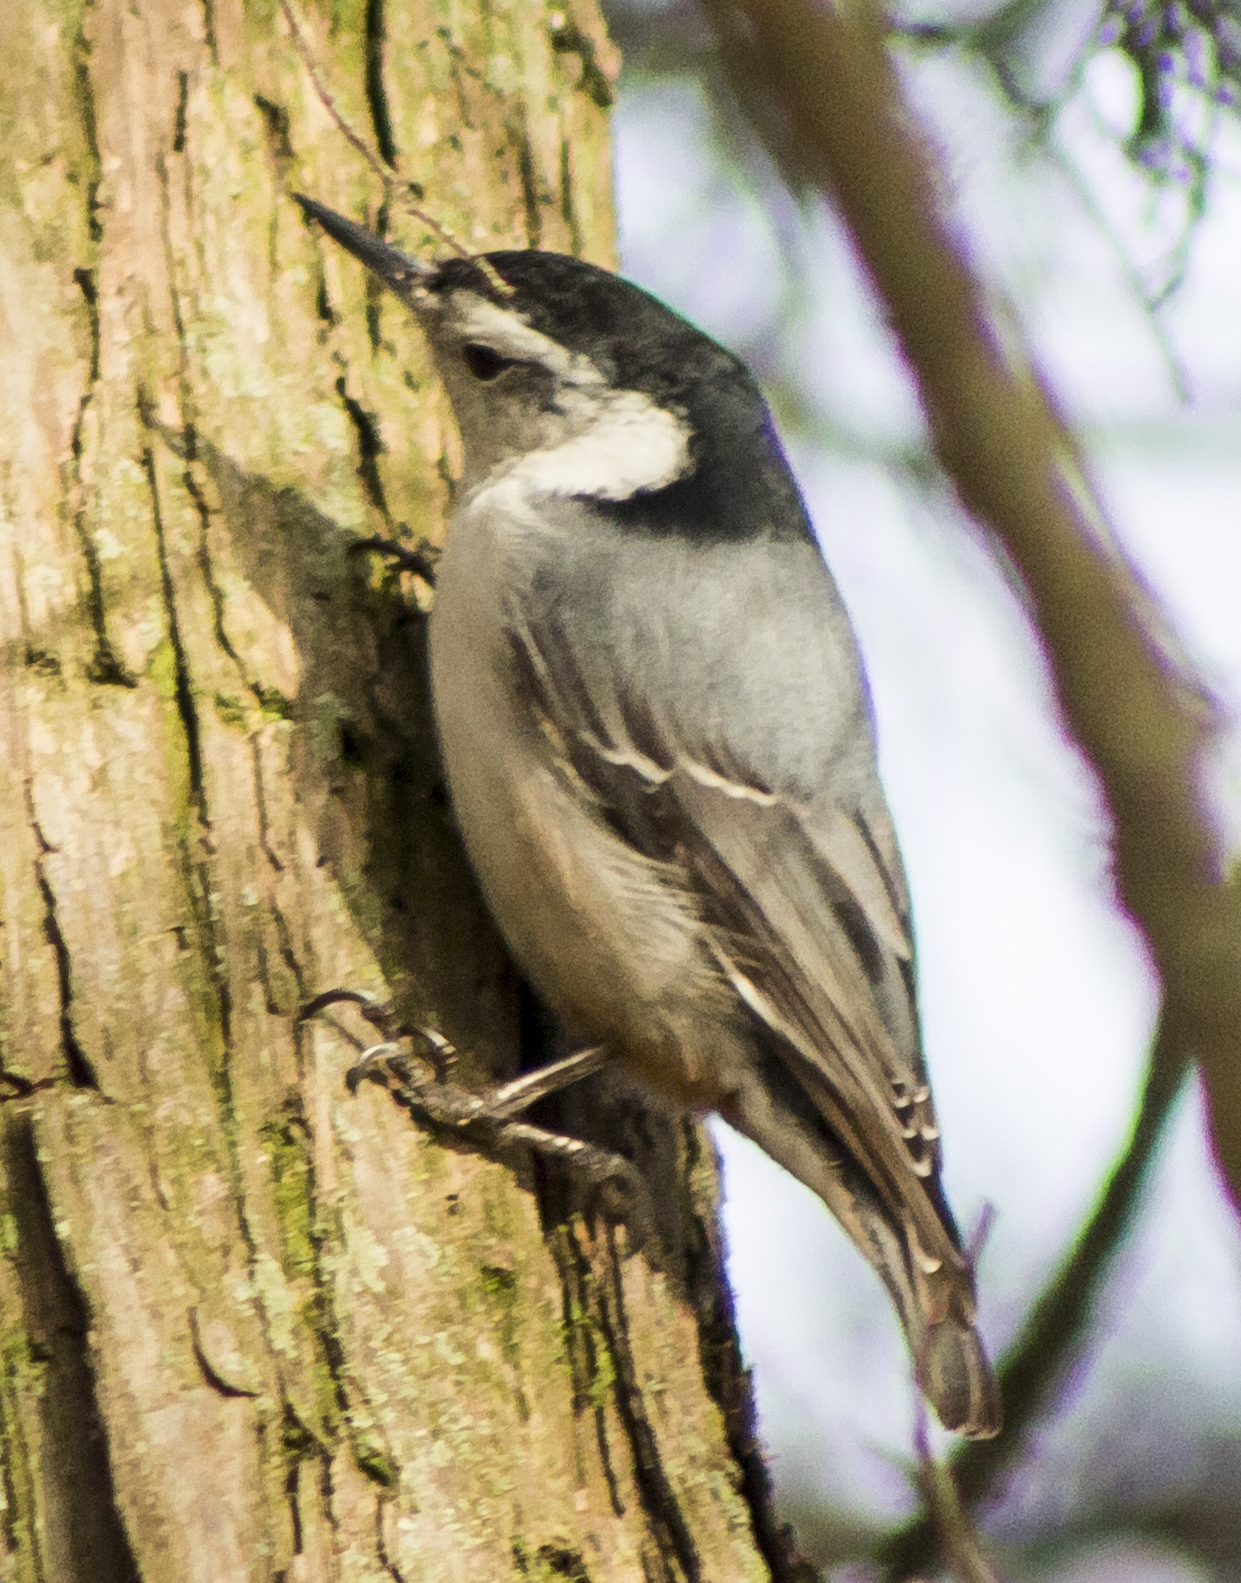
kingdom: Animalia
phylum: Chordata
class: Aves
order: Passeriformes
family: Sittidae
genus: Sitta
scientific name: Sitta carolinensis
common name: White-breasted nuthatch
